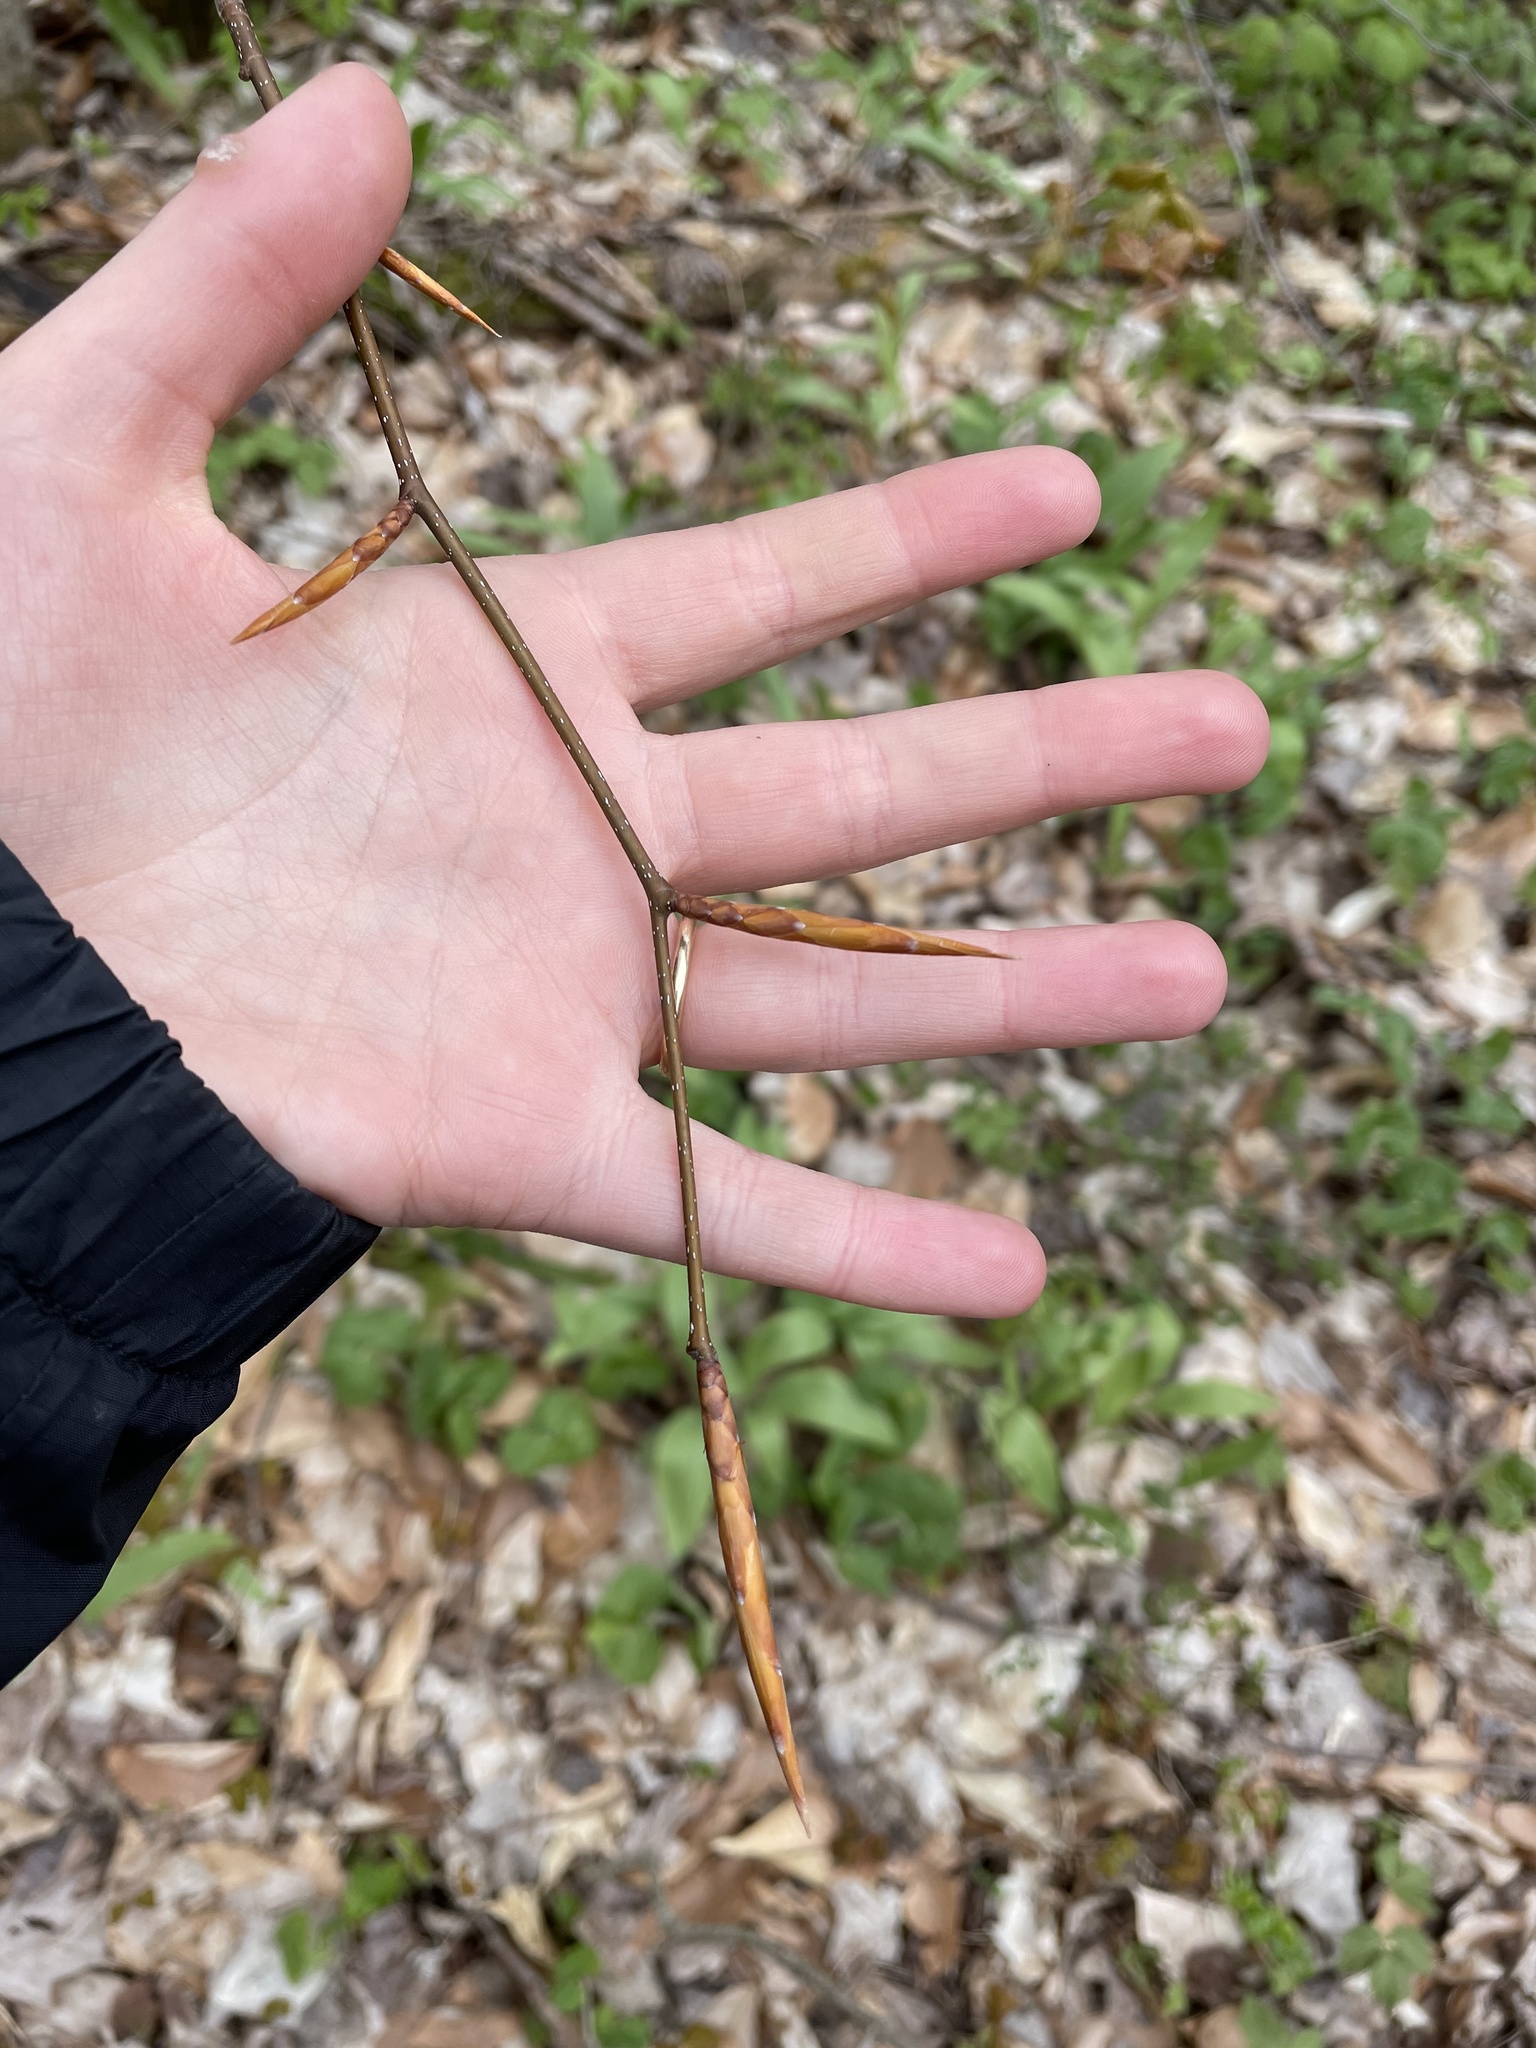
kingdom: Plantae
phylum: Tracheophyta
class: Magnoliopsida
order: Fagales
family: Fagaceae
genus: Fagus
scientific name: Fagus grandifolia
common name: American beech
